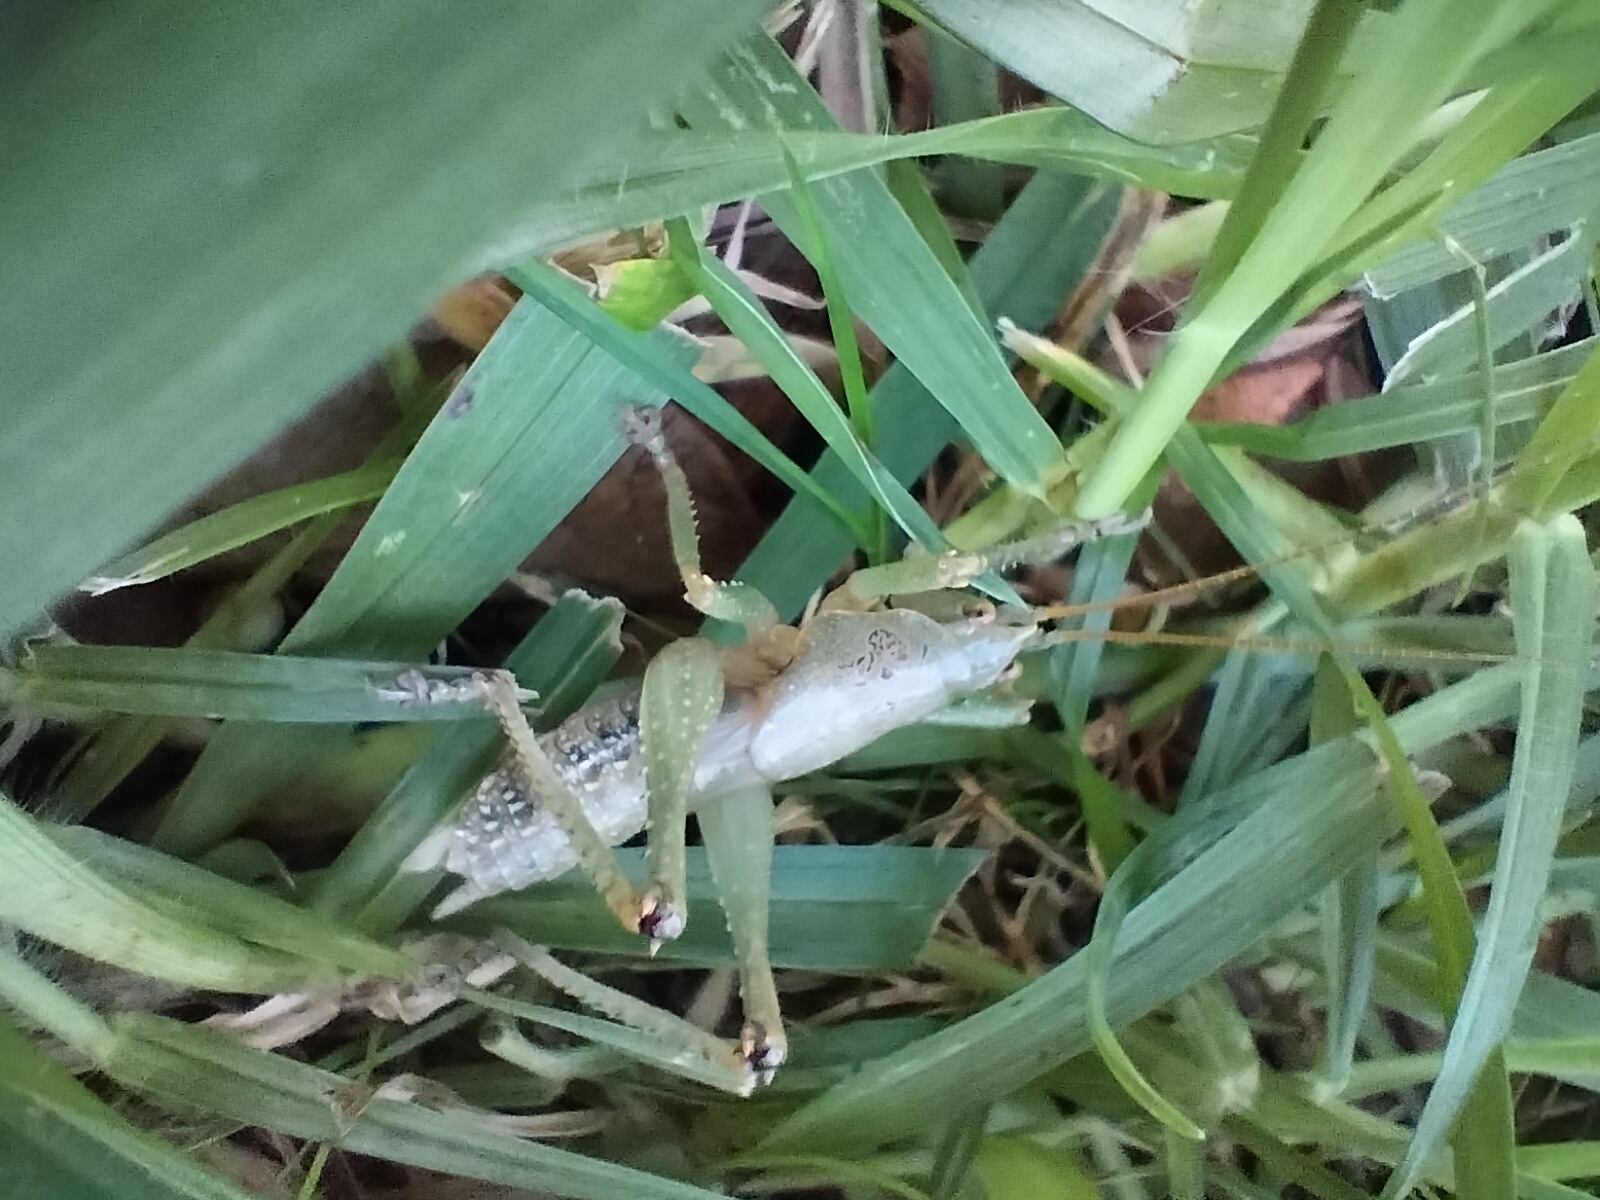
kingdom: Animalia
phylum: Arthropoda
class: Insecta
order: Orthoptera
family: Tettigoniidae
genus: Austrosalomona
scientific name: Austrosalomona falcata
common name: Olive-green coastal katydid
